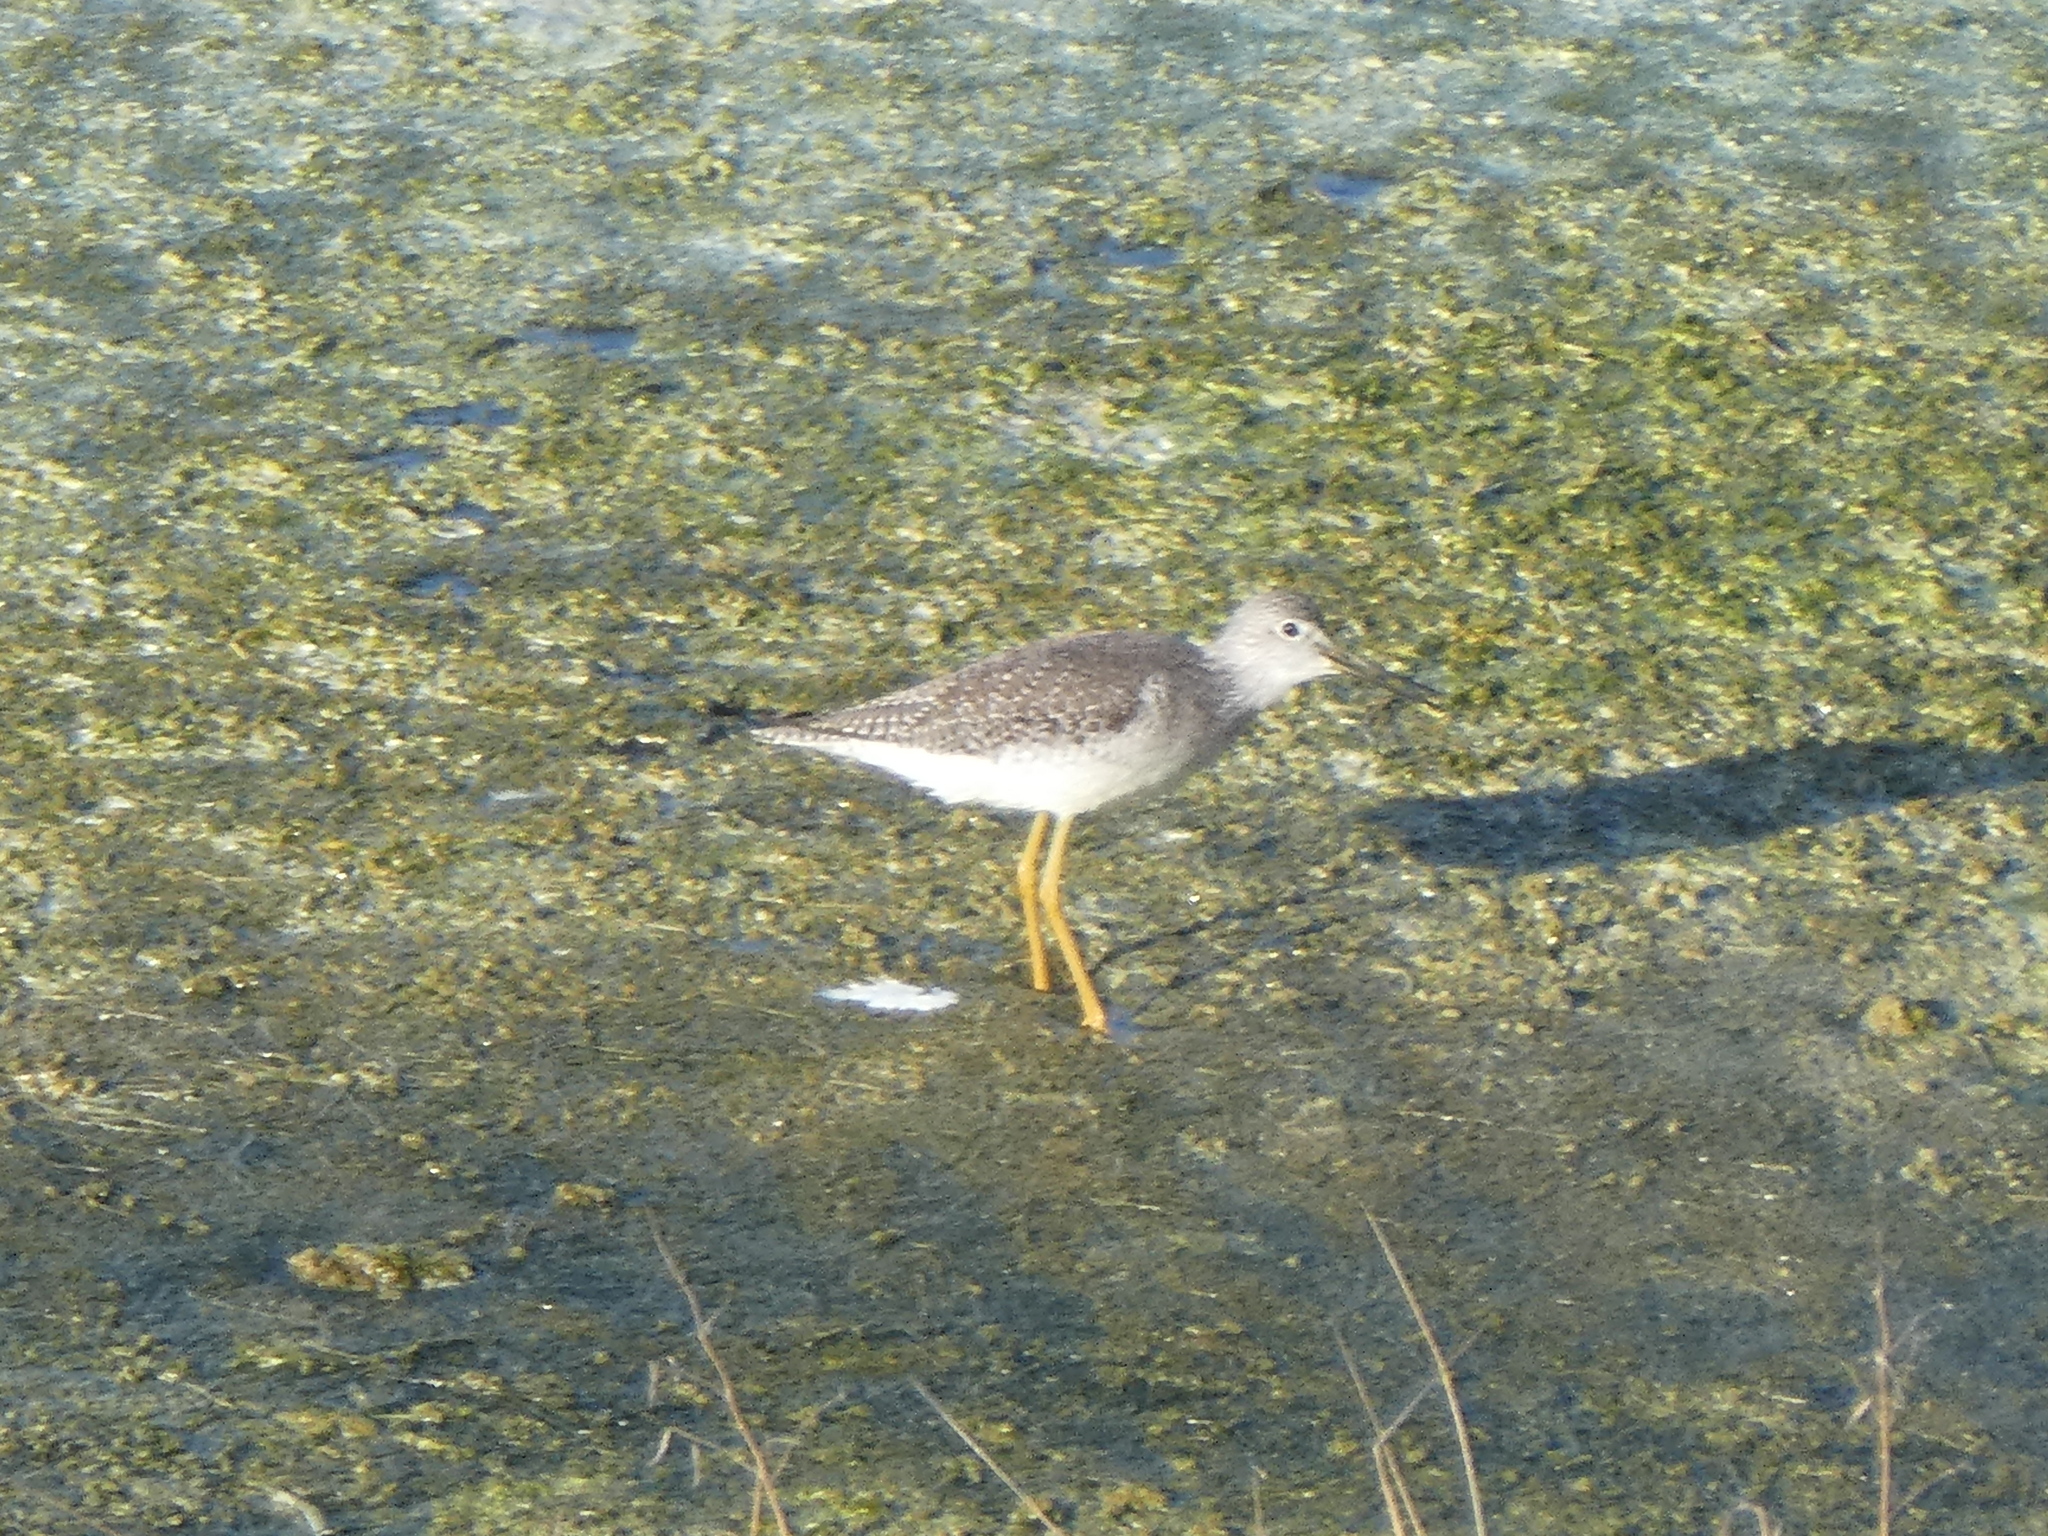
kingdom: Animalia
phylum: Chordata
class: Aves
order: Charadriiformes
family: Scolopacidae
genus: Tringa
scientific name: Tringa melanoleuca
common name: Greater yellowlegs
